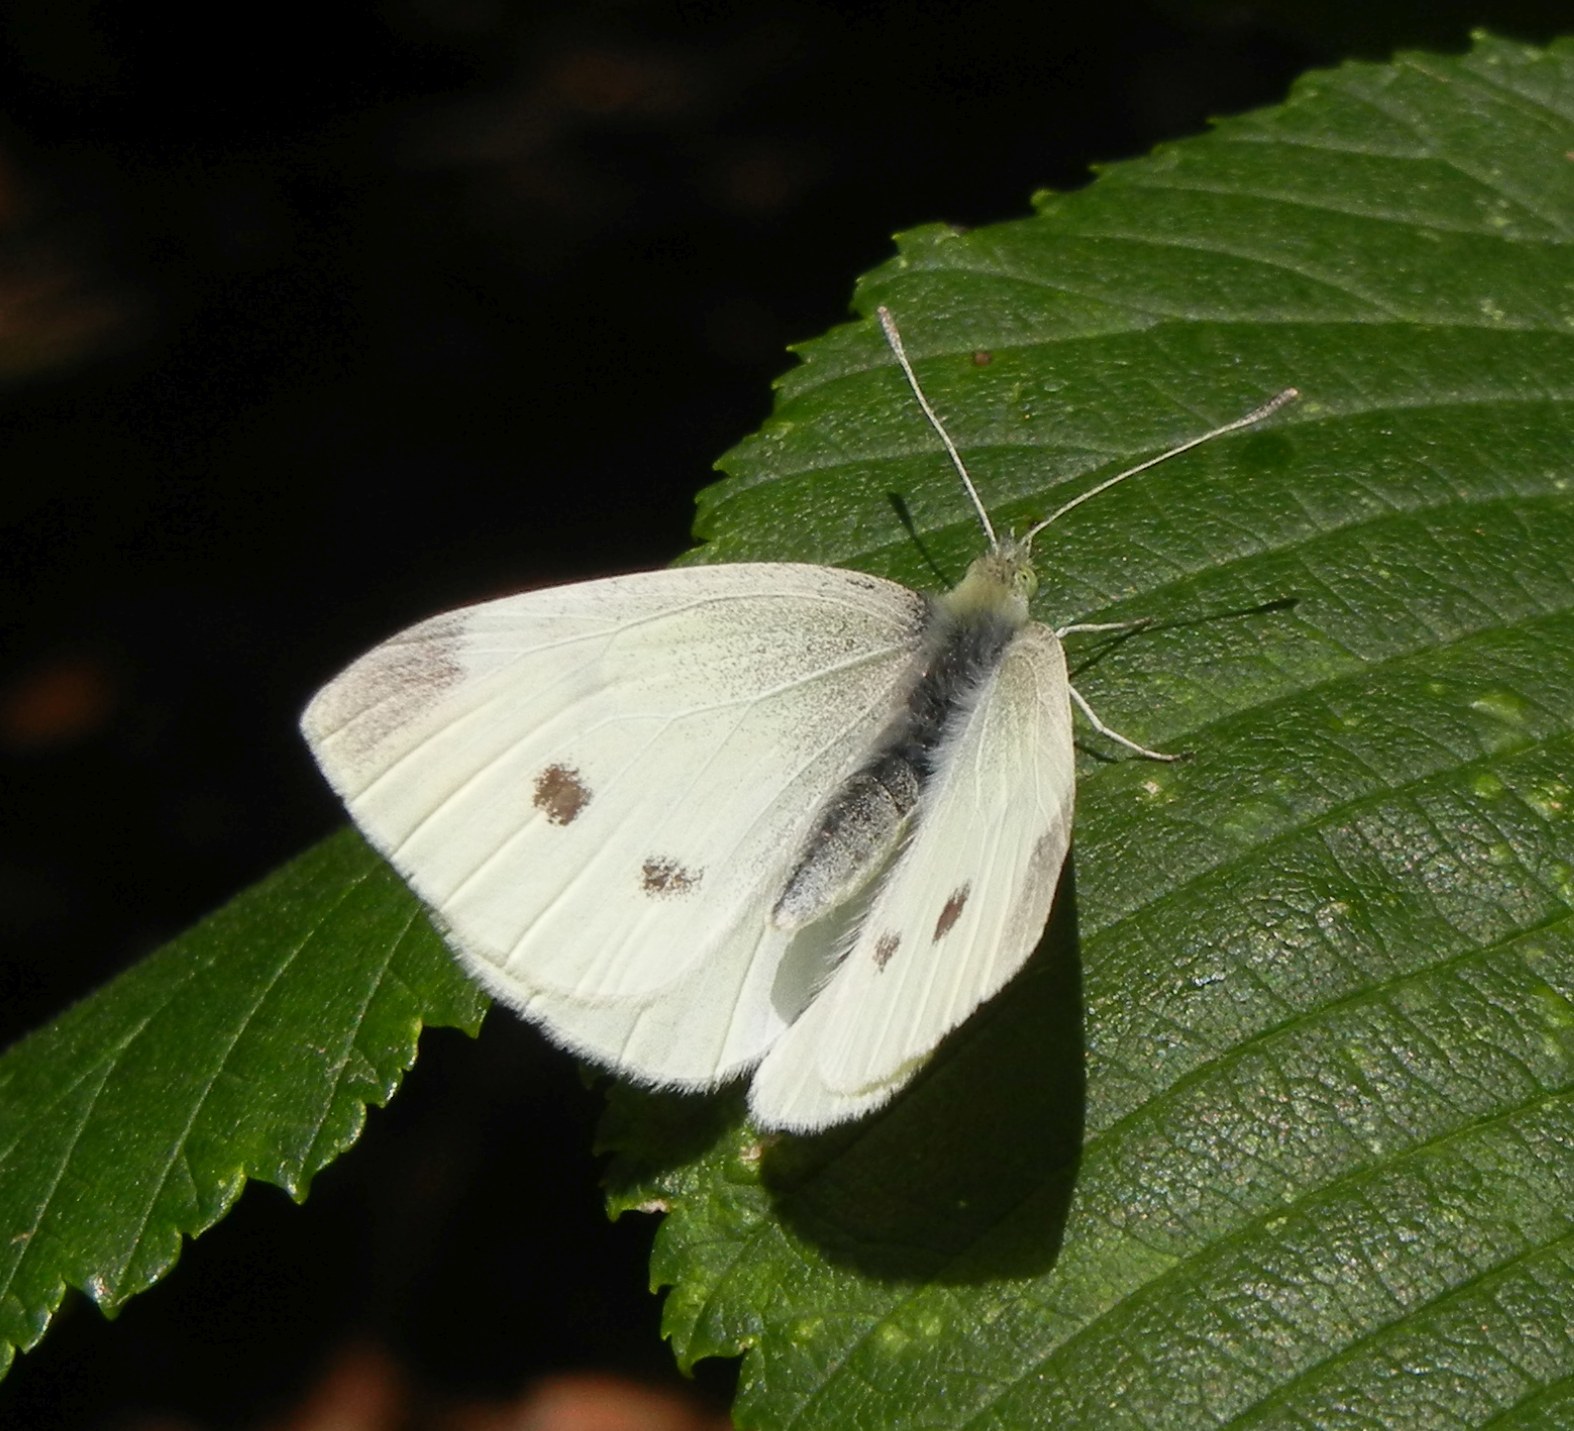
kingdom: Animalia
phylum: Arthropoda
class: Insecta
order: Lepidoptera
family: Pieridae
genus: Pieris
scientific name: Pieris rapae
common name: Small white
